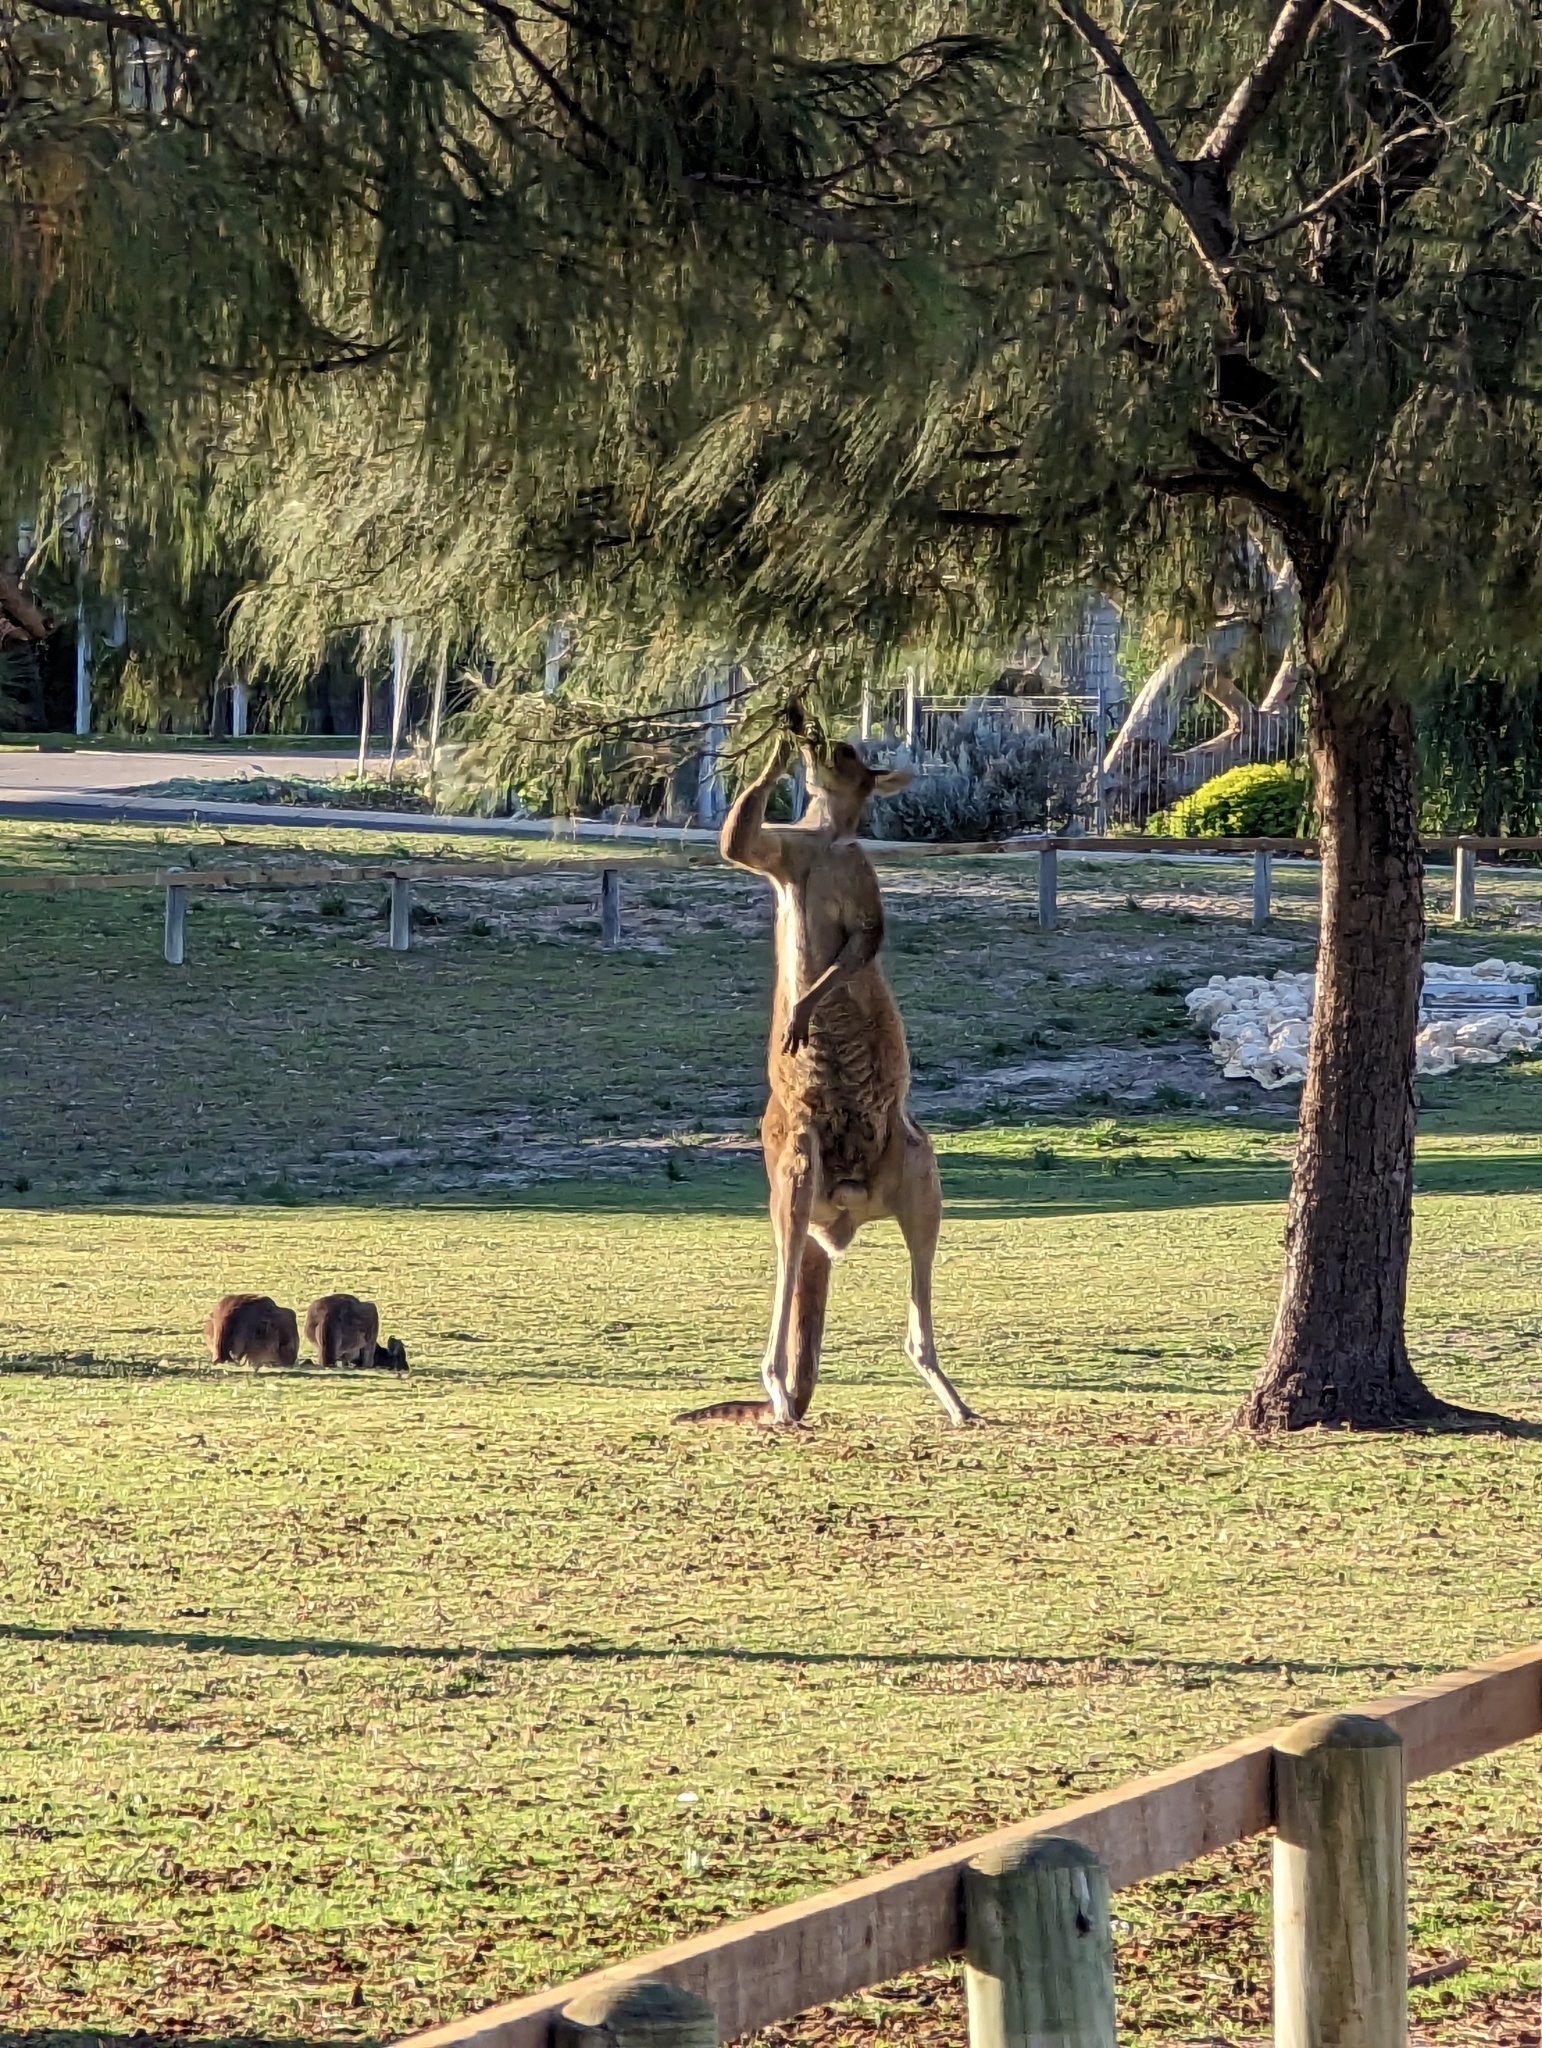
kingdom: Animalia
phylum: Chordata
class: Mammalia
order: Diprotodontia
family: Macropodidae
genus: Macropus
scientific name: Macropus fuliginosus
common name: Western grey kangaroo
